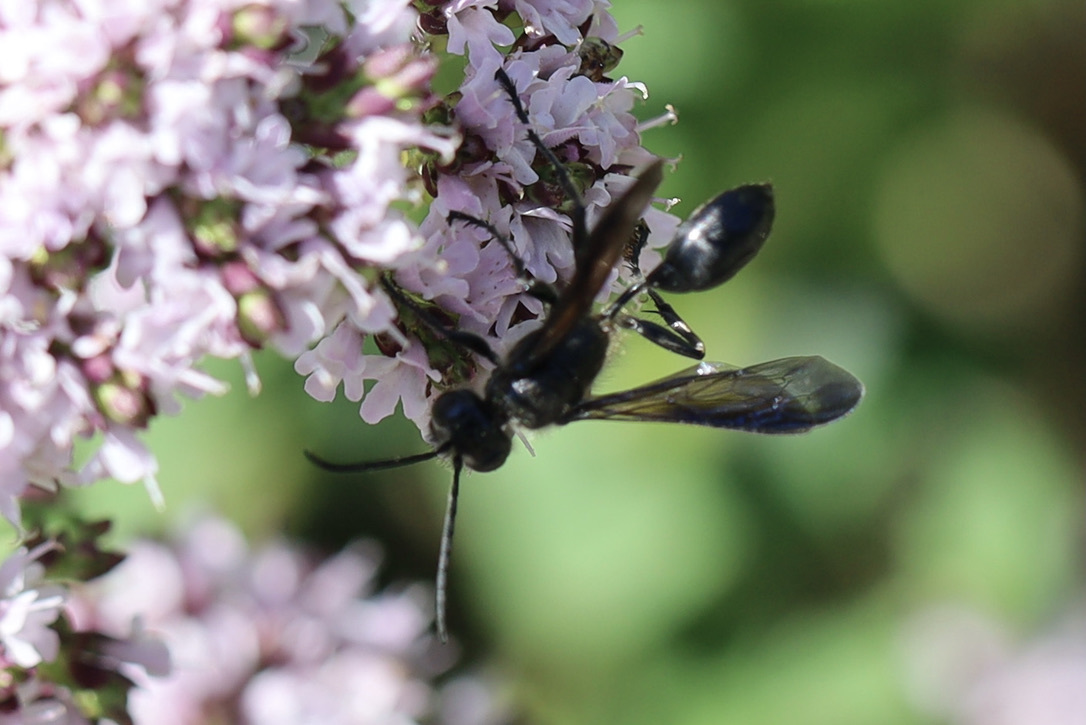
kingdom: Animalia
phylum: Arthropoda
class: Insecta
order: Hymenoptera
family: Sphecidae
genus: Isodontia
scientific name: Isodontia mexicana
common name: Mud dauber
